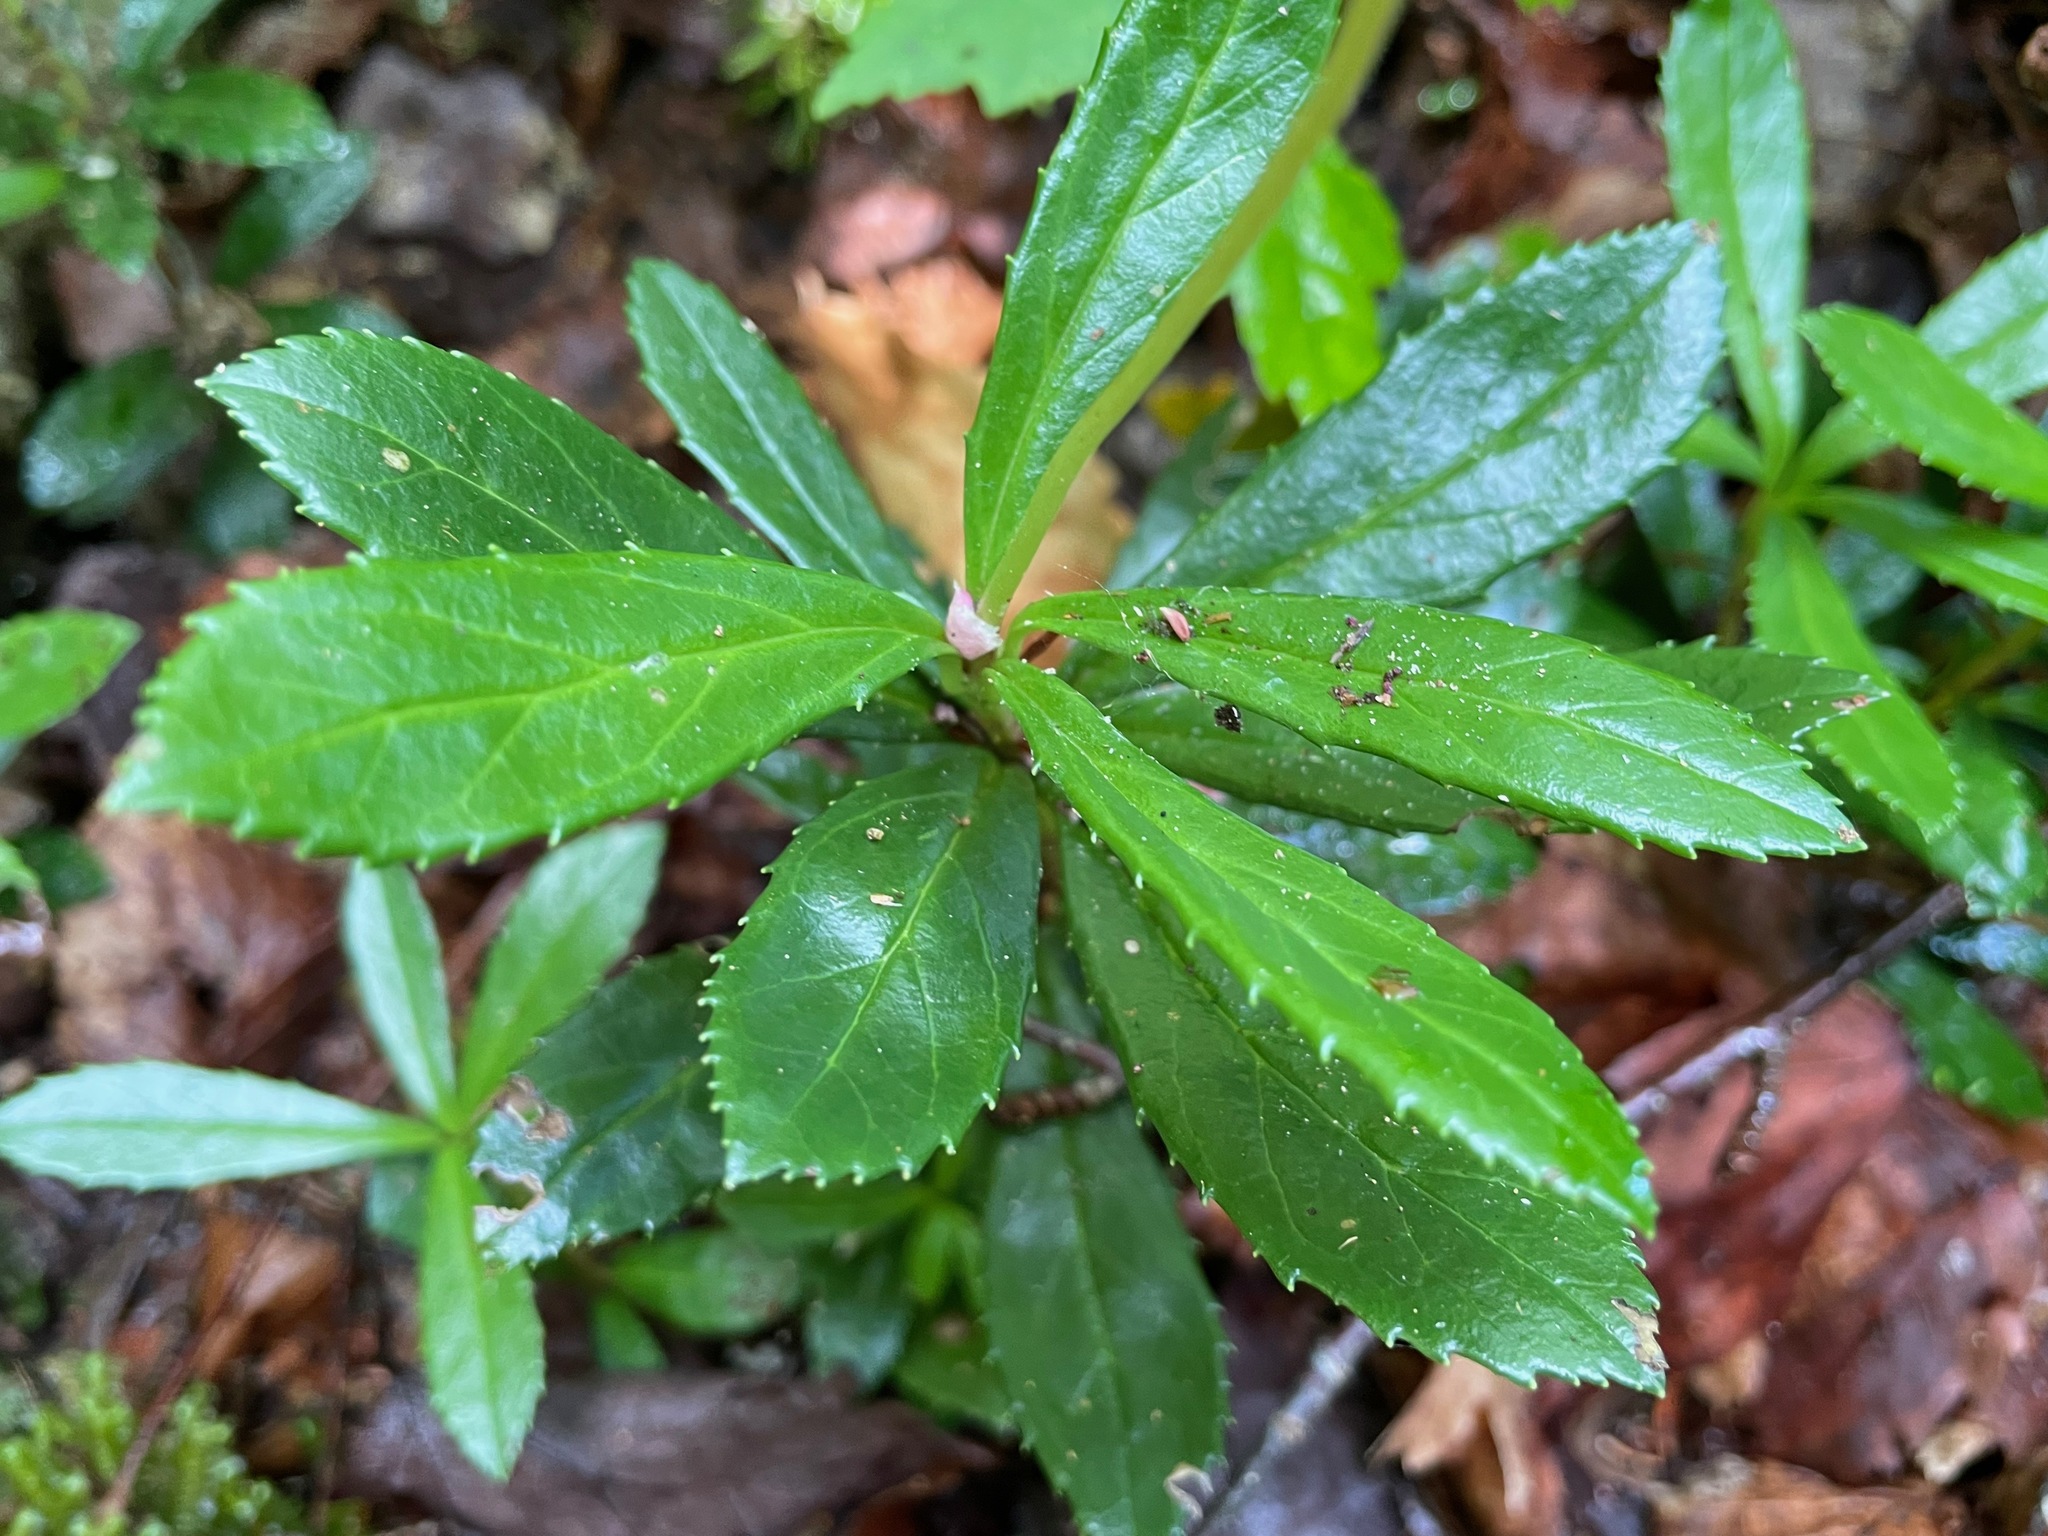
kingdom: Plantae
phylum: Tracheophyta
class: Magnoliopsida
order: Ericales
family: Ericaceae
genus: Chimaphila
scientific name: Chimaphila umbellata
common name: Pipsissewa
